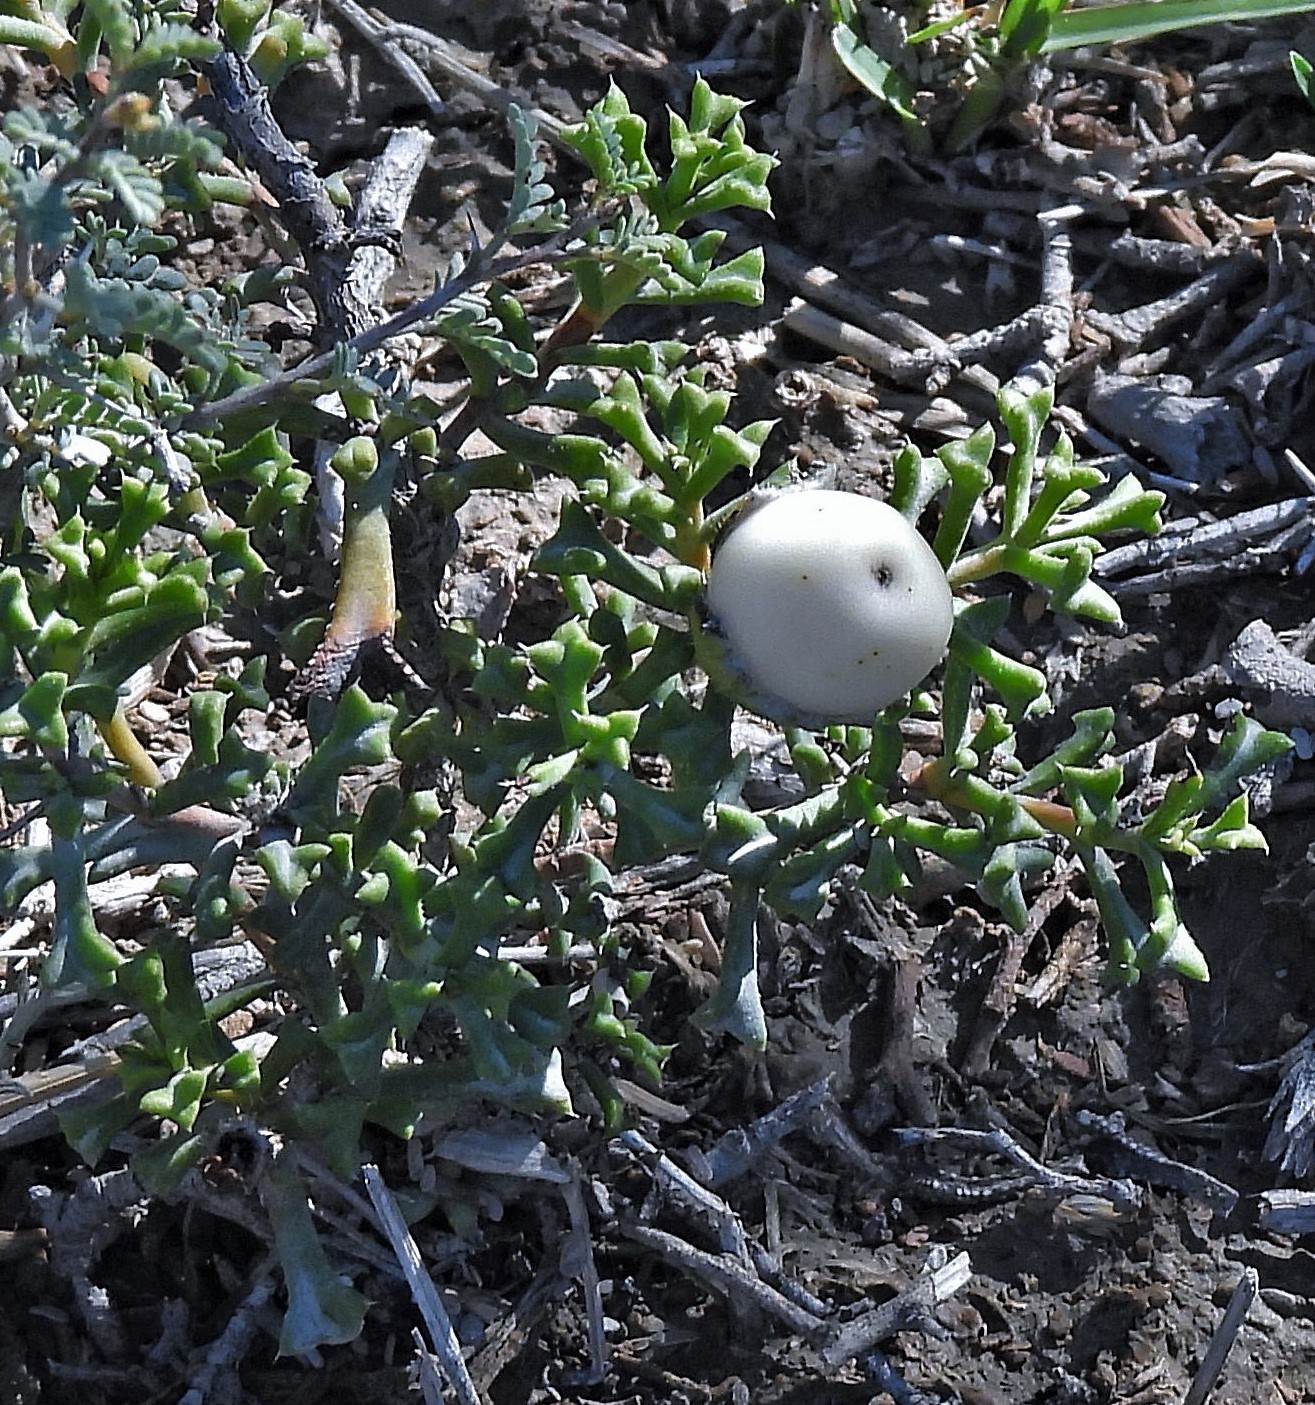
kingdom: Plantae
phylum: Tracheophyta
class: Magnoliopsida
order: Boraginales
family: Ehretiaceae
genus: Ehretia
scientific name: Ehretia cortesia
